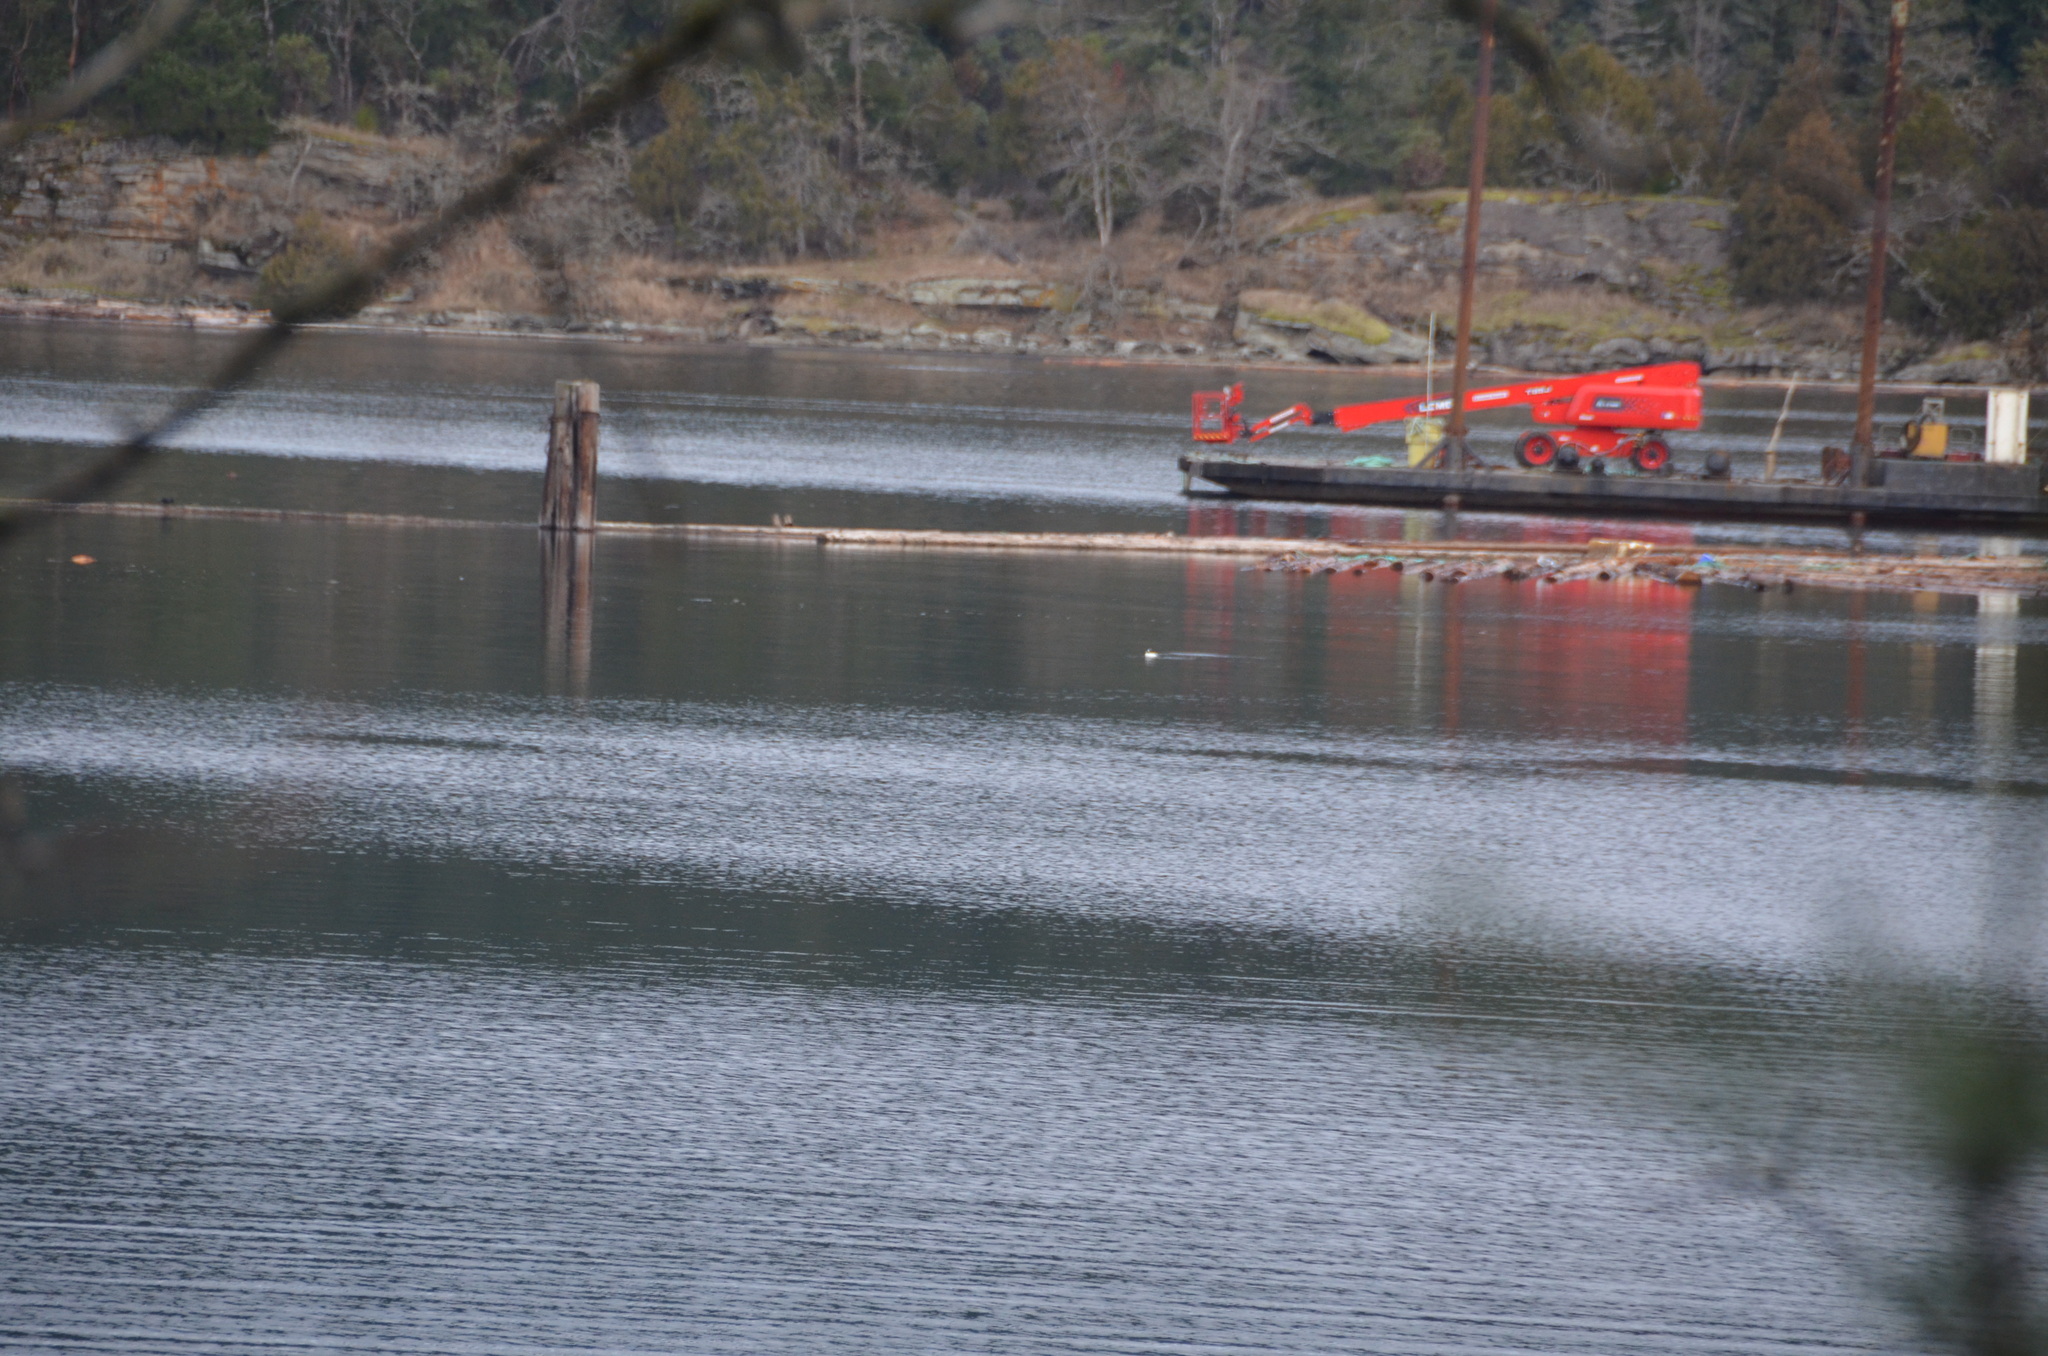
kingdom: Animalia
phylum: Chordata
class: Aves
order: Anseriformes
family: Anatidae
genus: Bucephala
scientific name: Bucephala clangula
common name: Common goldeneye
